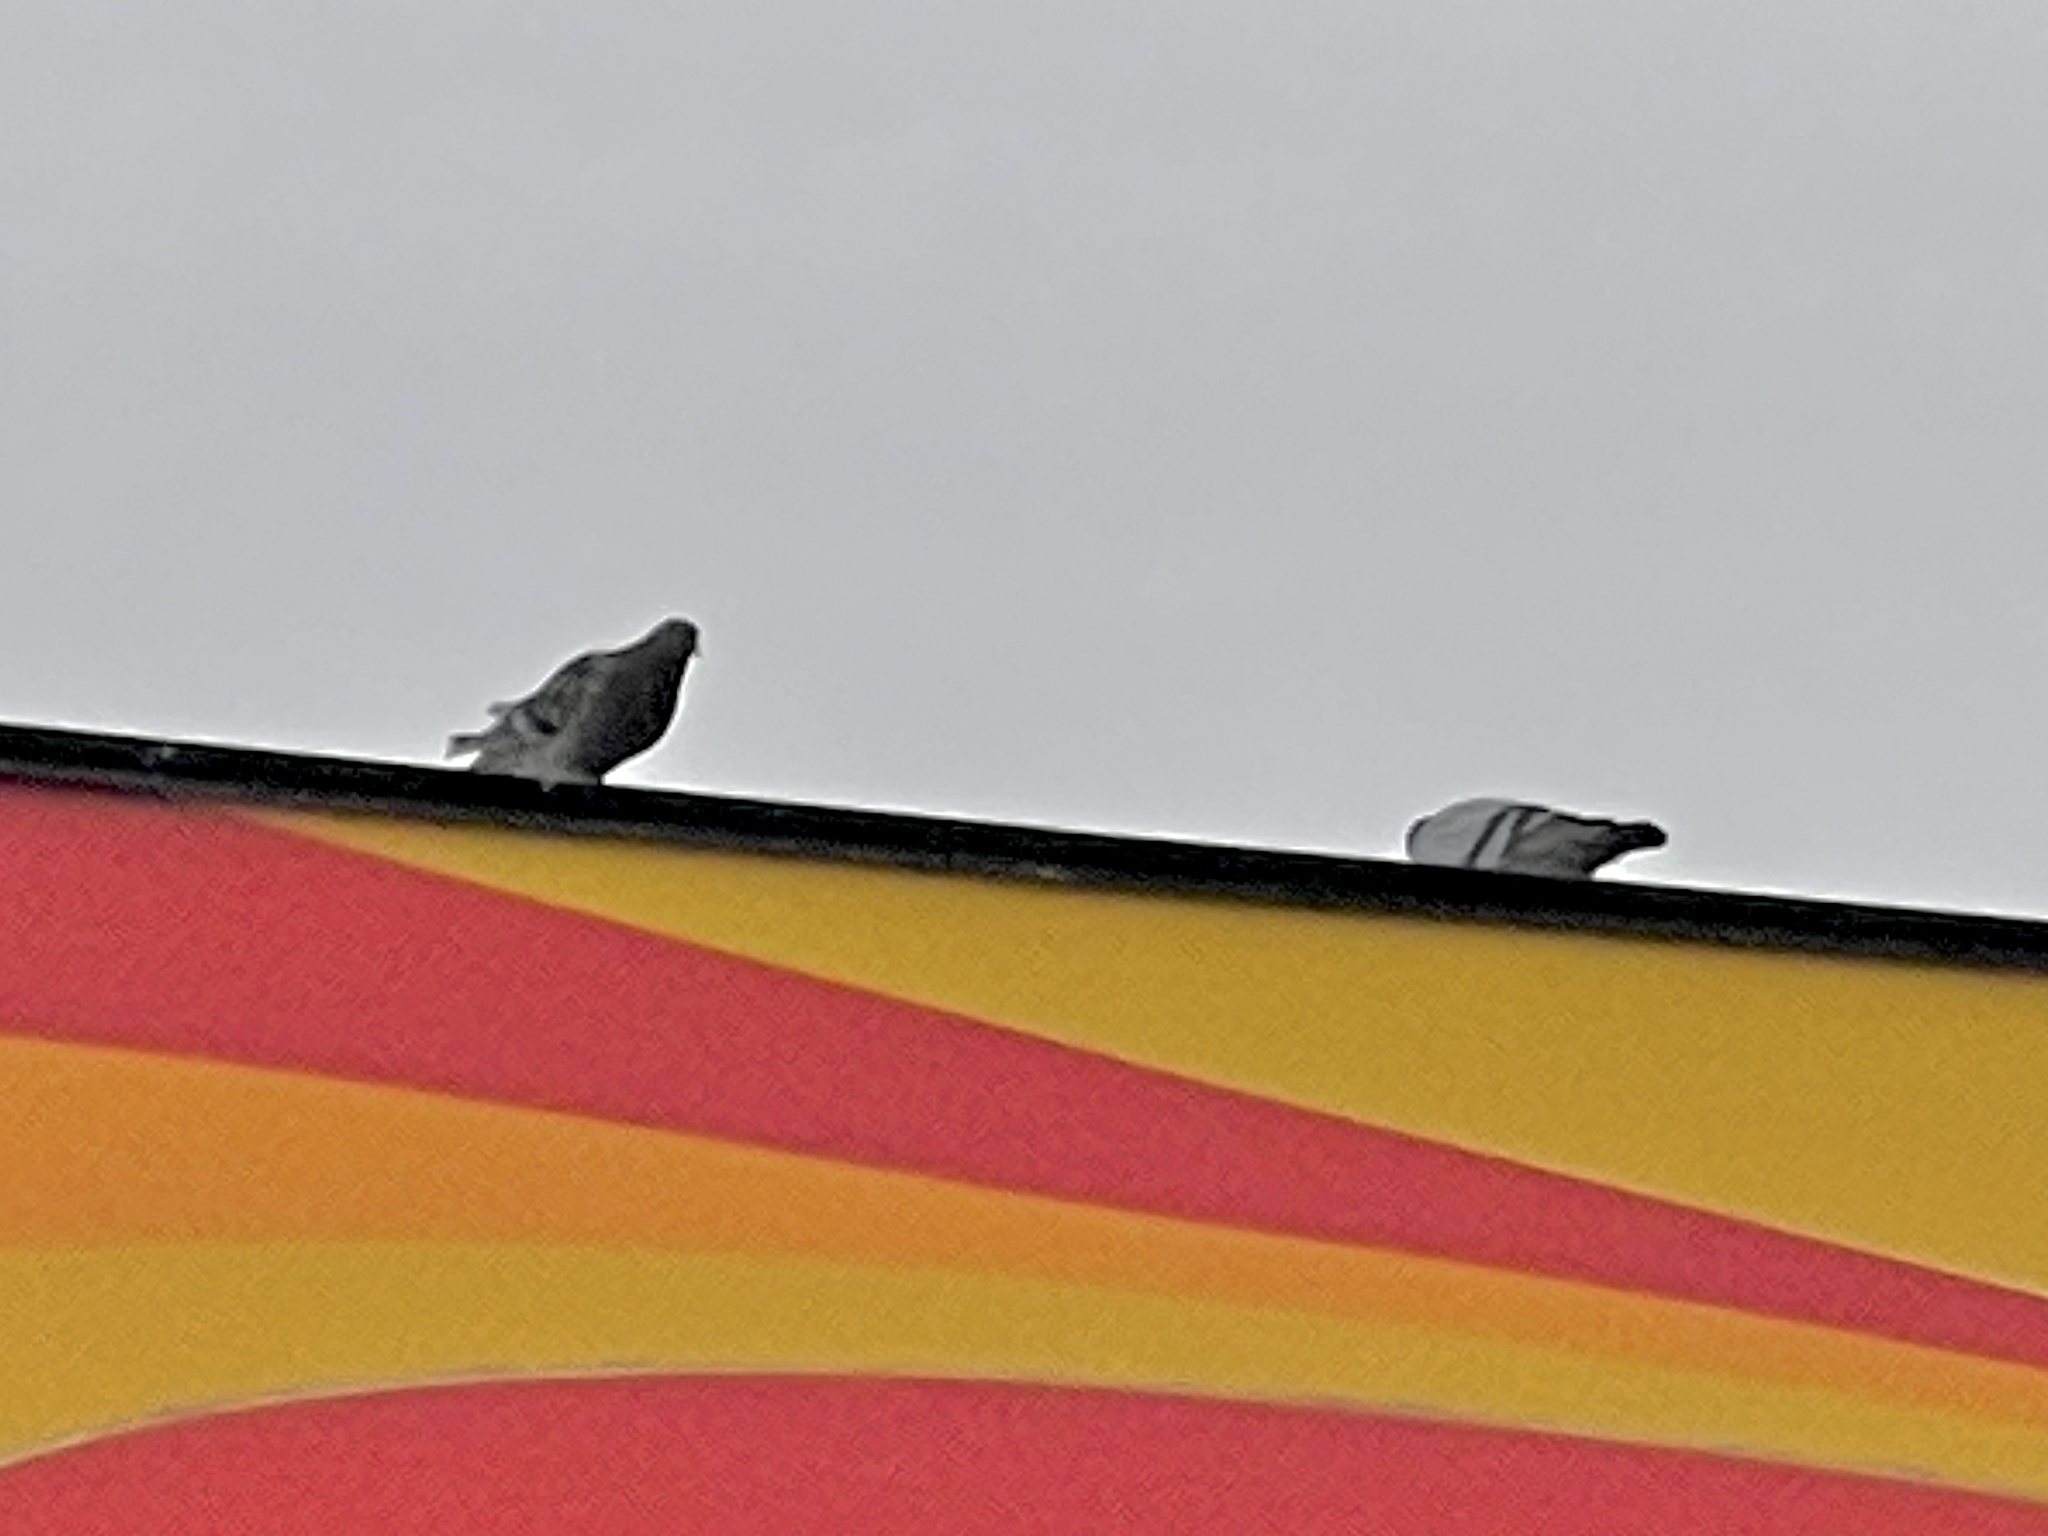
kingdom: Animalia
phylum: Chordata
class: Aves
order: Columbiformes
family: Columbidae
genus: Columba
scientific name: Columba livia
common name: Rock pigeon
